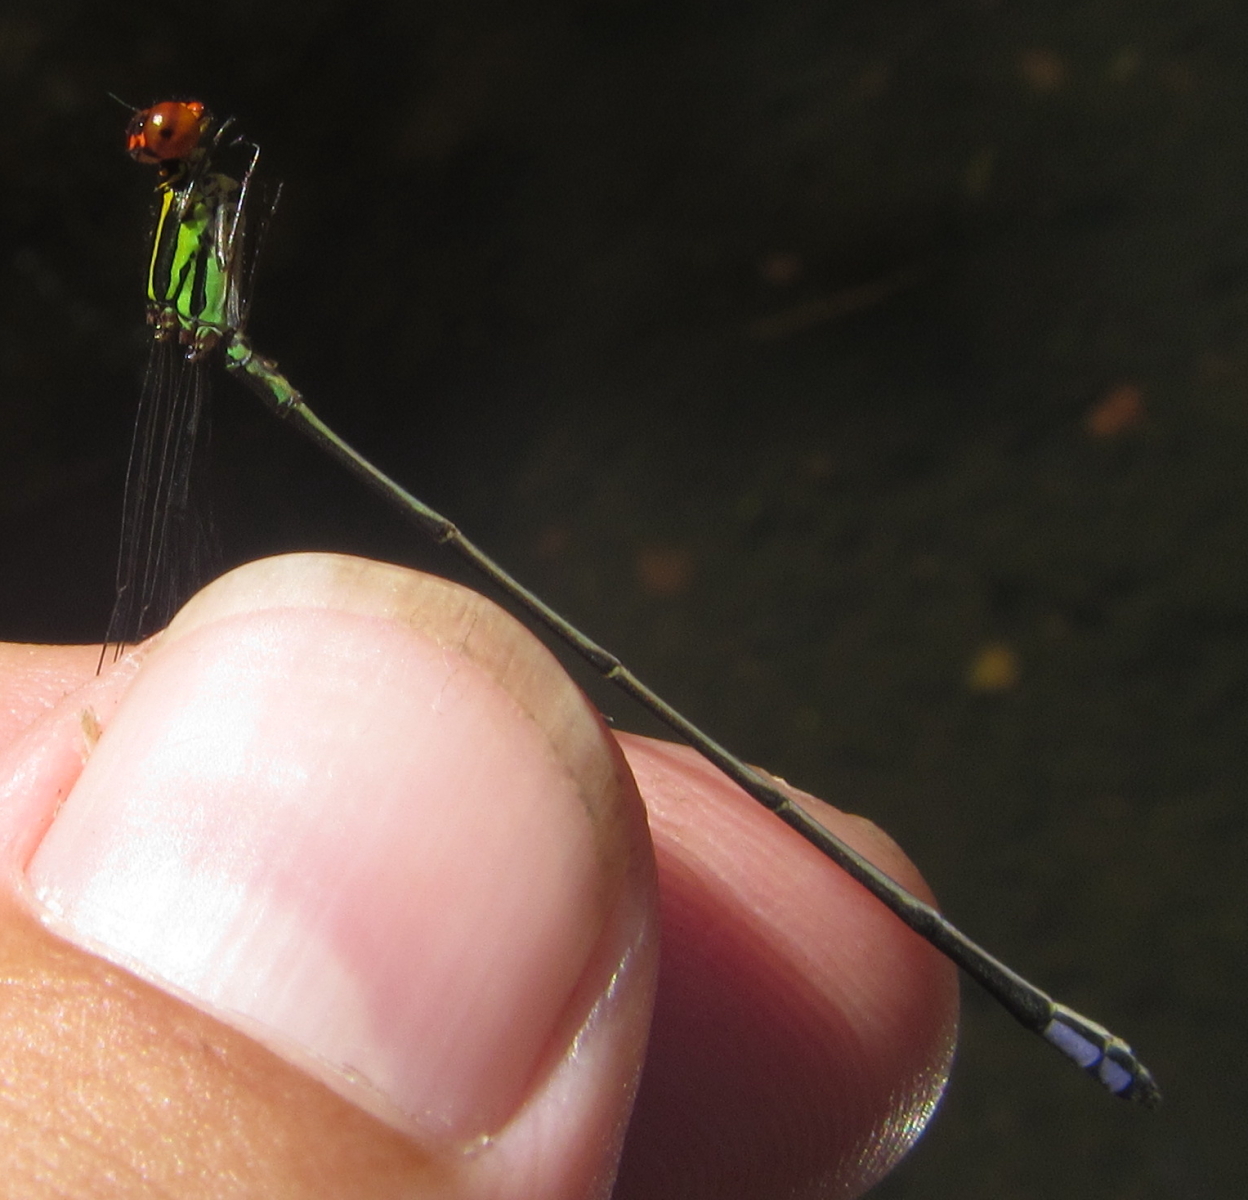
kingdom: Animalia
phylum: Arthropoda
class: Insecta
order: Odonata
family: Coenagrionidae
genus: Pseudagrion
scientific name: Pseudagrion hageni
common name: Painted sprite
